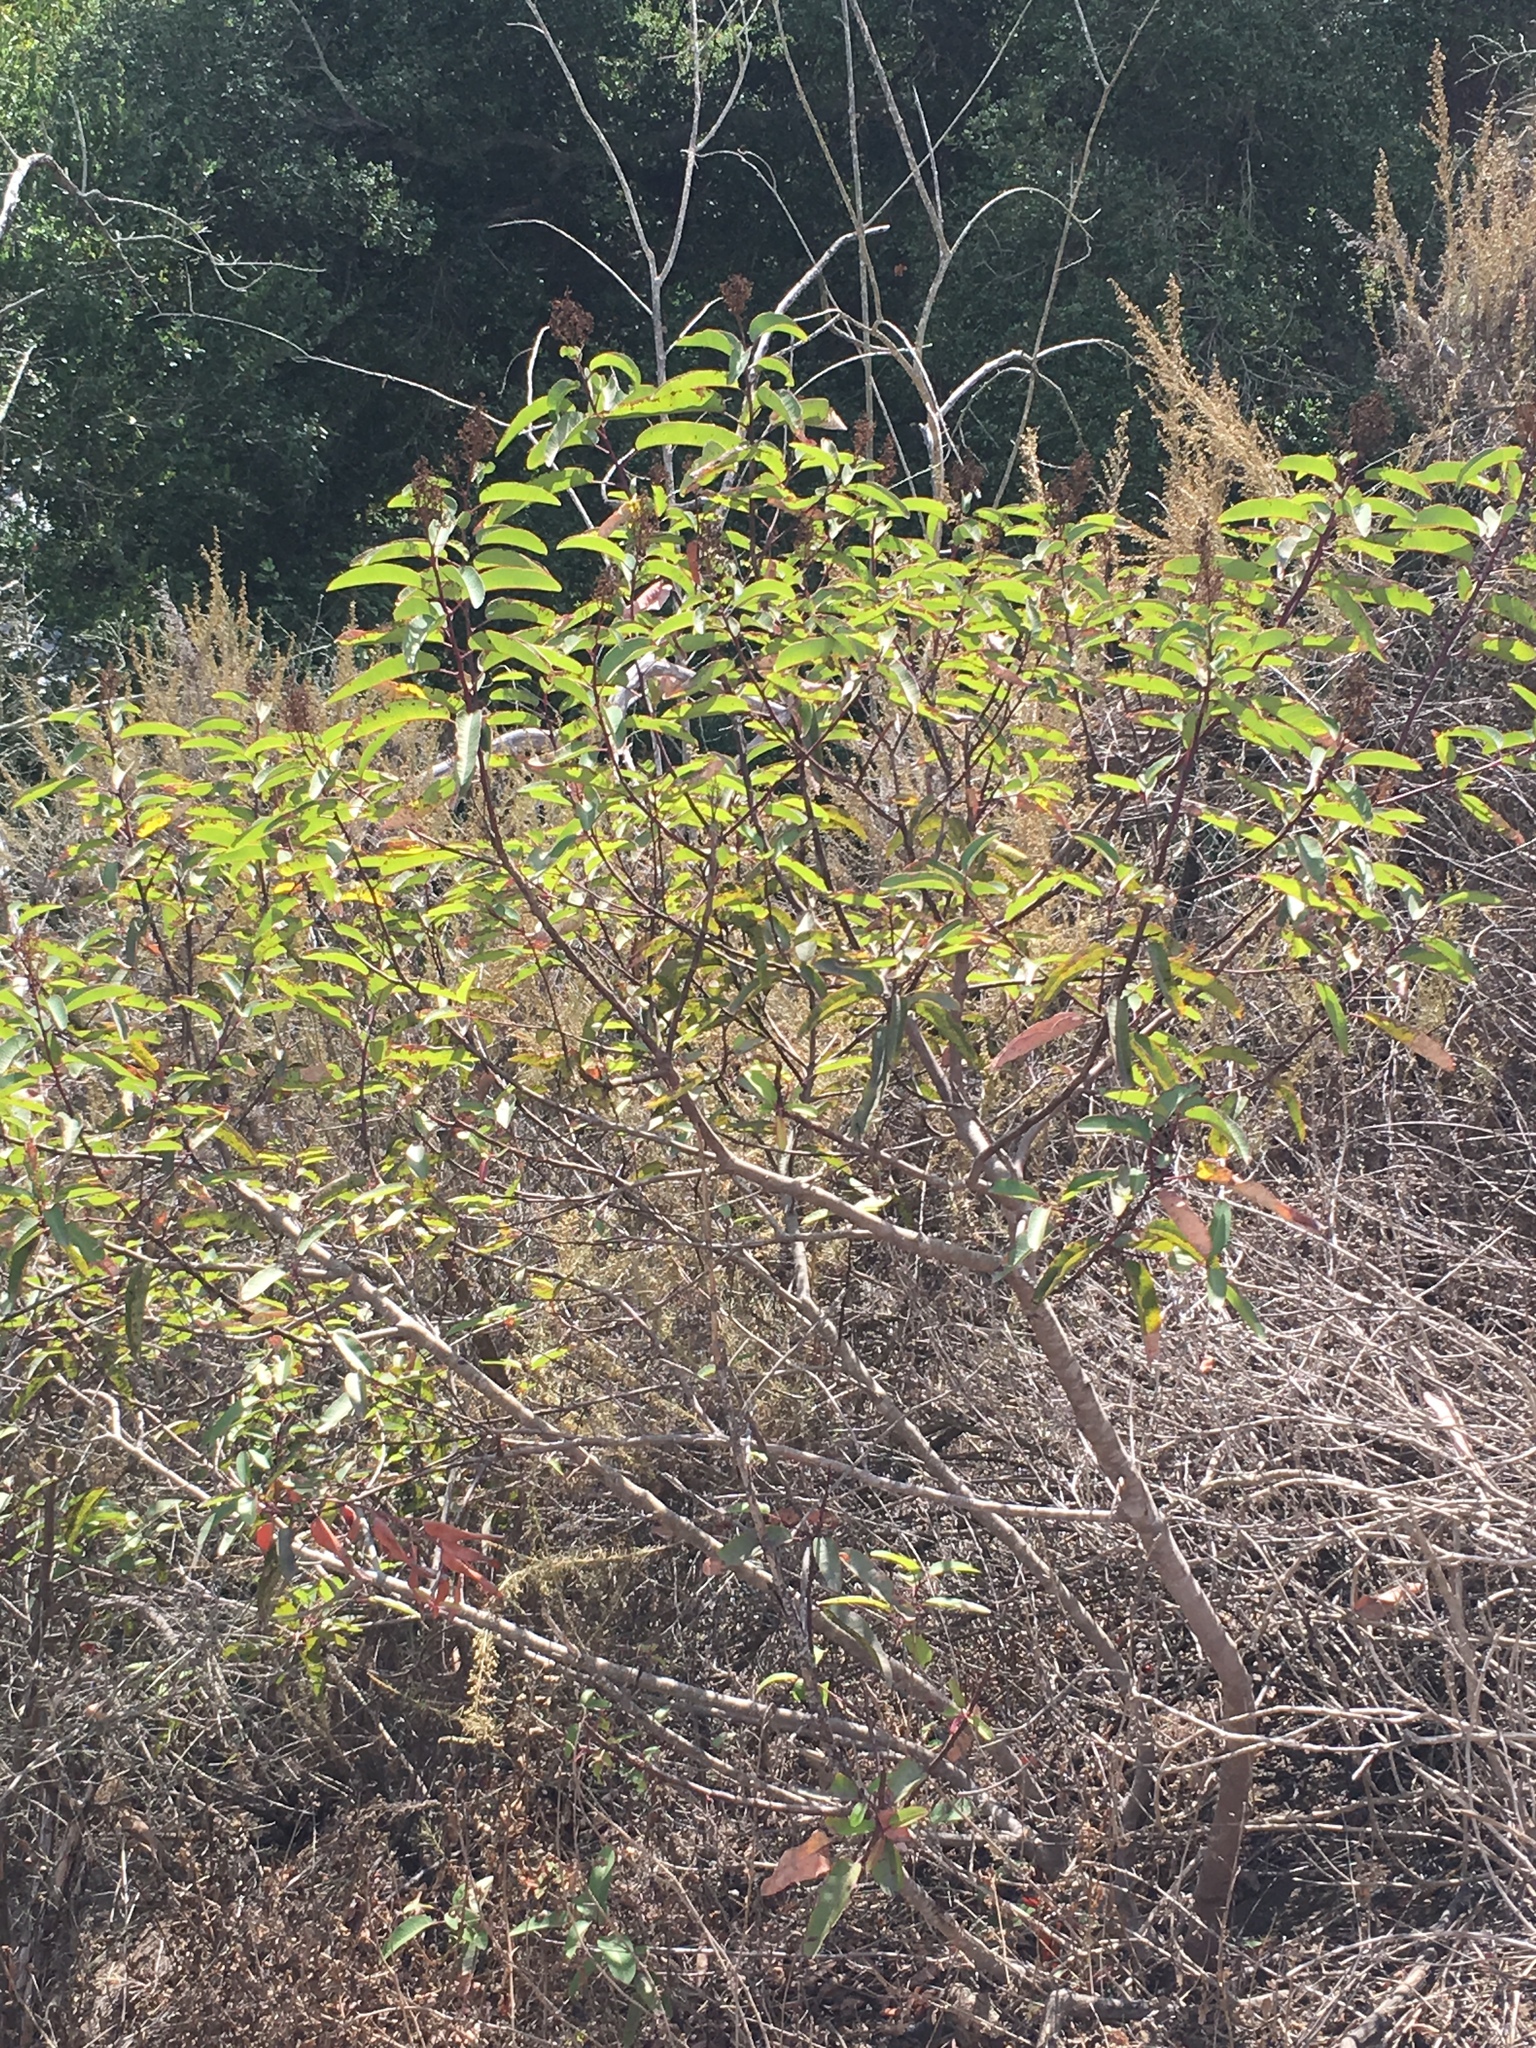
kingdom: Plantae
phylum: Tracheophyta
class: Magnoliopsida
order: Sapindales
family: Anacardiaceae
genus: Malosma
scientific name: Malosma laurina
